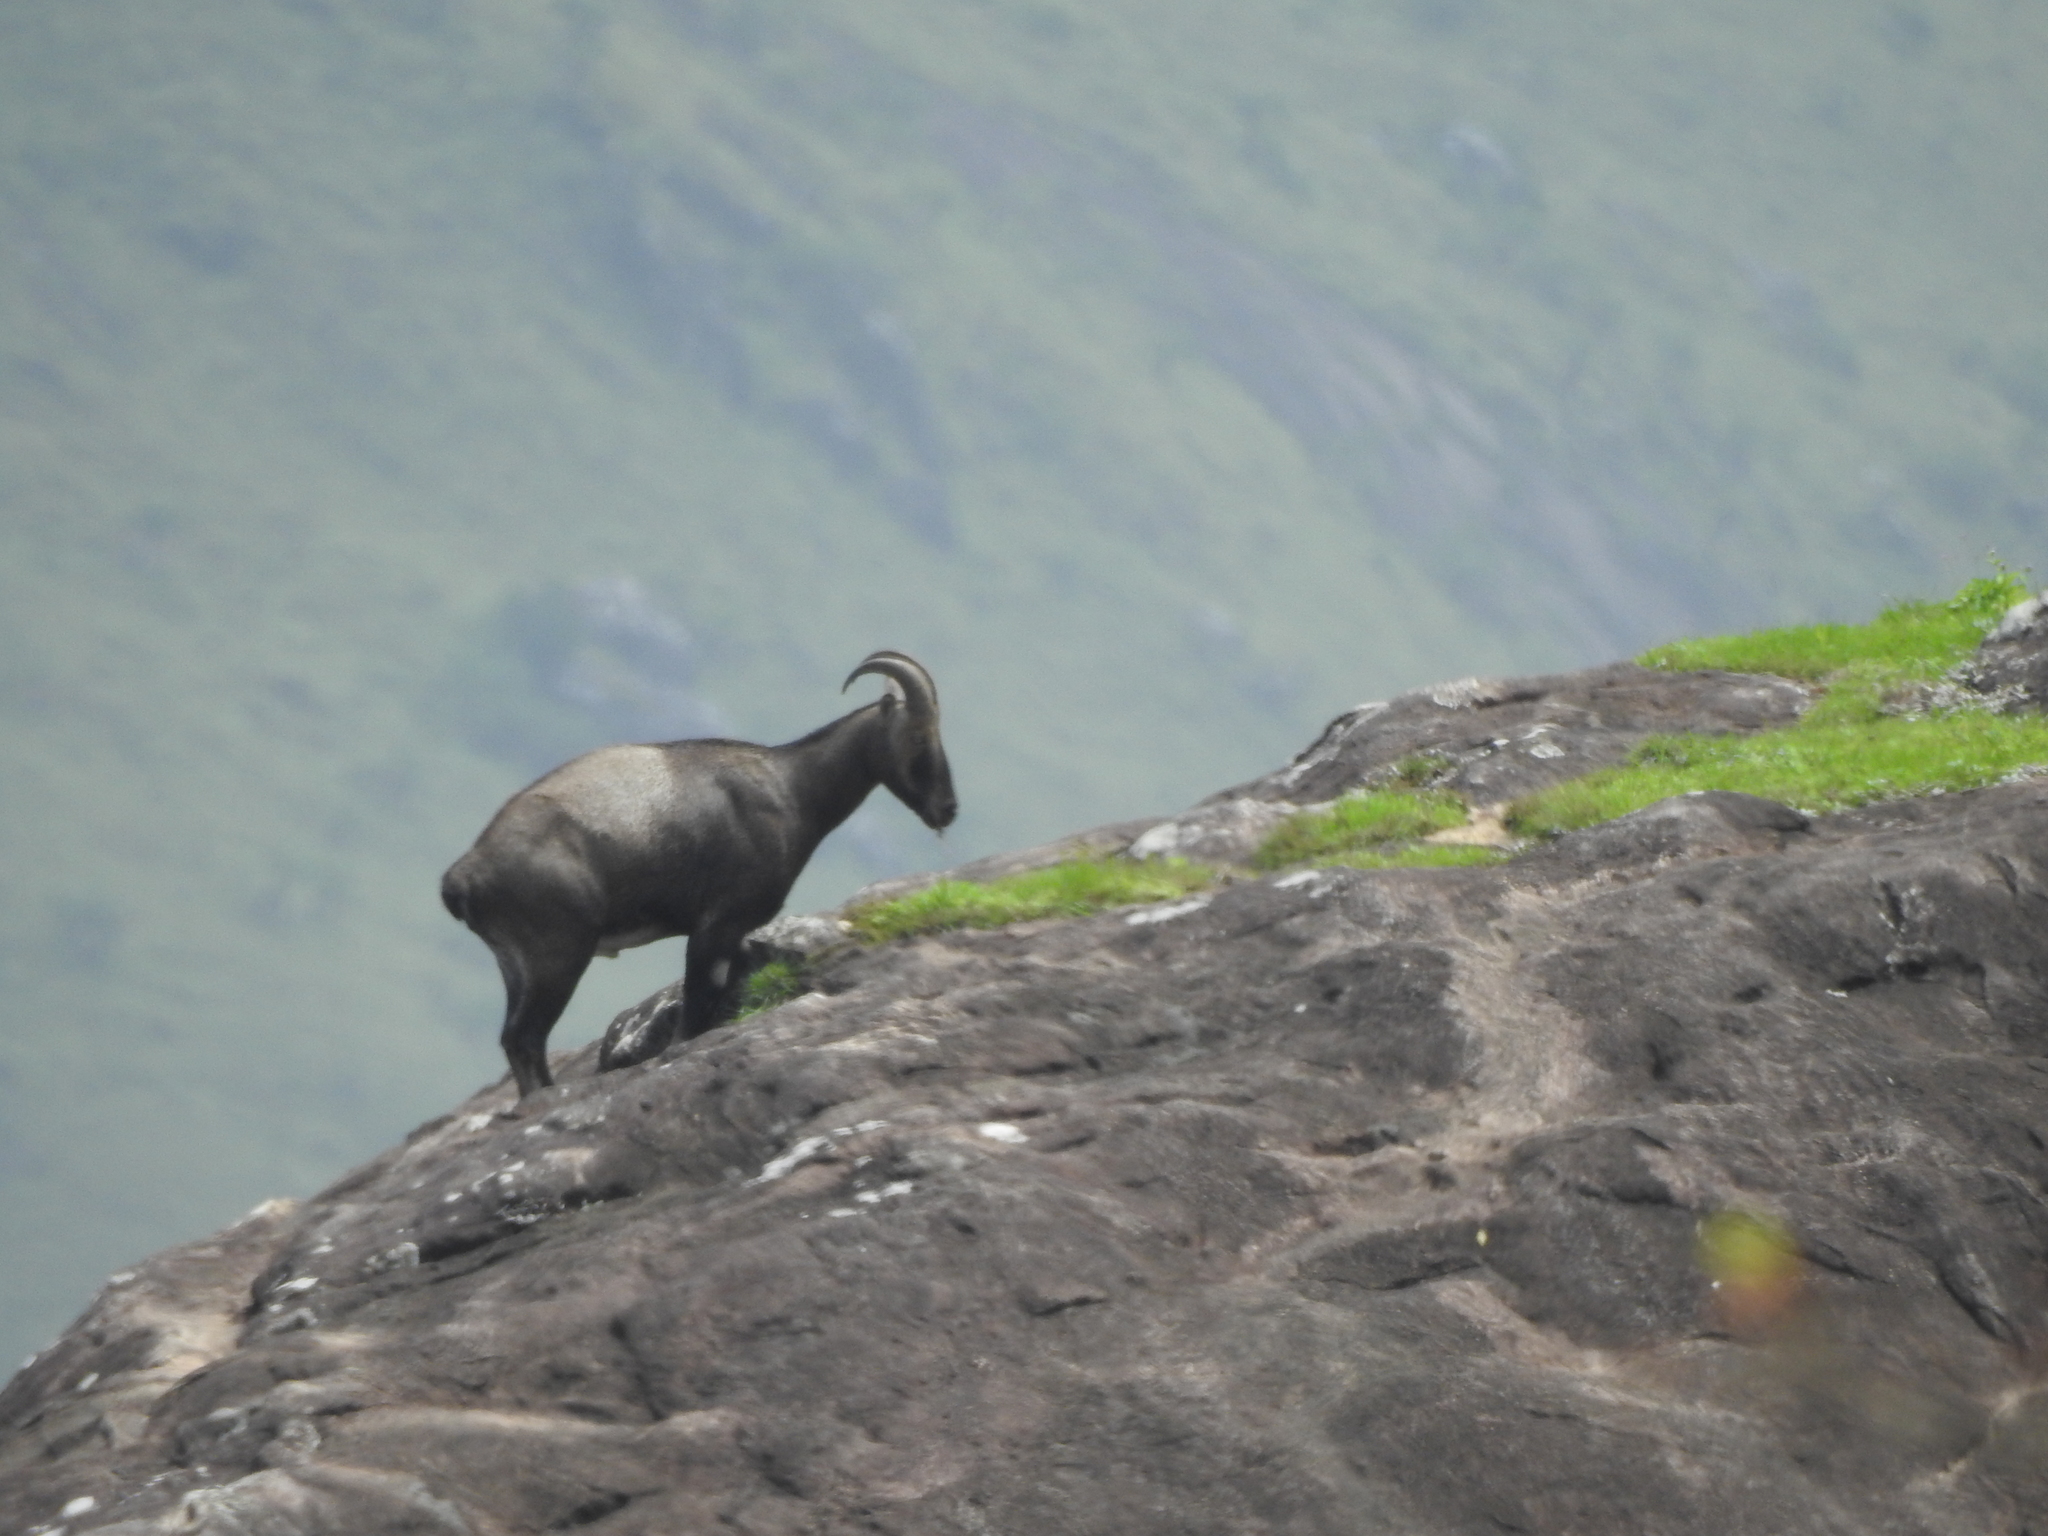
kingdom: Animalia
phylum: Chordata
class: Mammalia
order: Artiodactyla
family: Bovidae
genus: Hemitragus
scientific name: Hemitragus hylocrius
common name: Nilgiri tahr
